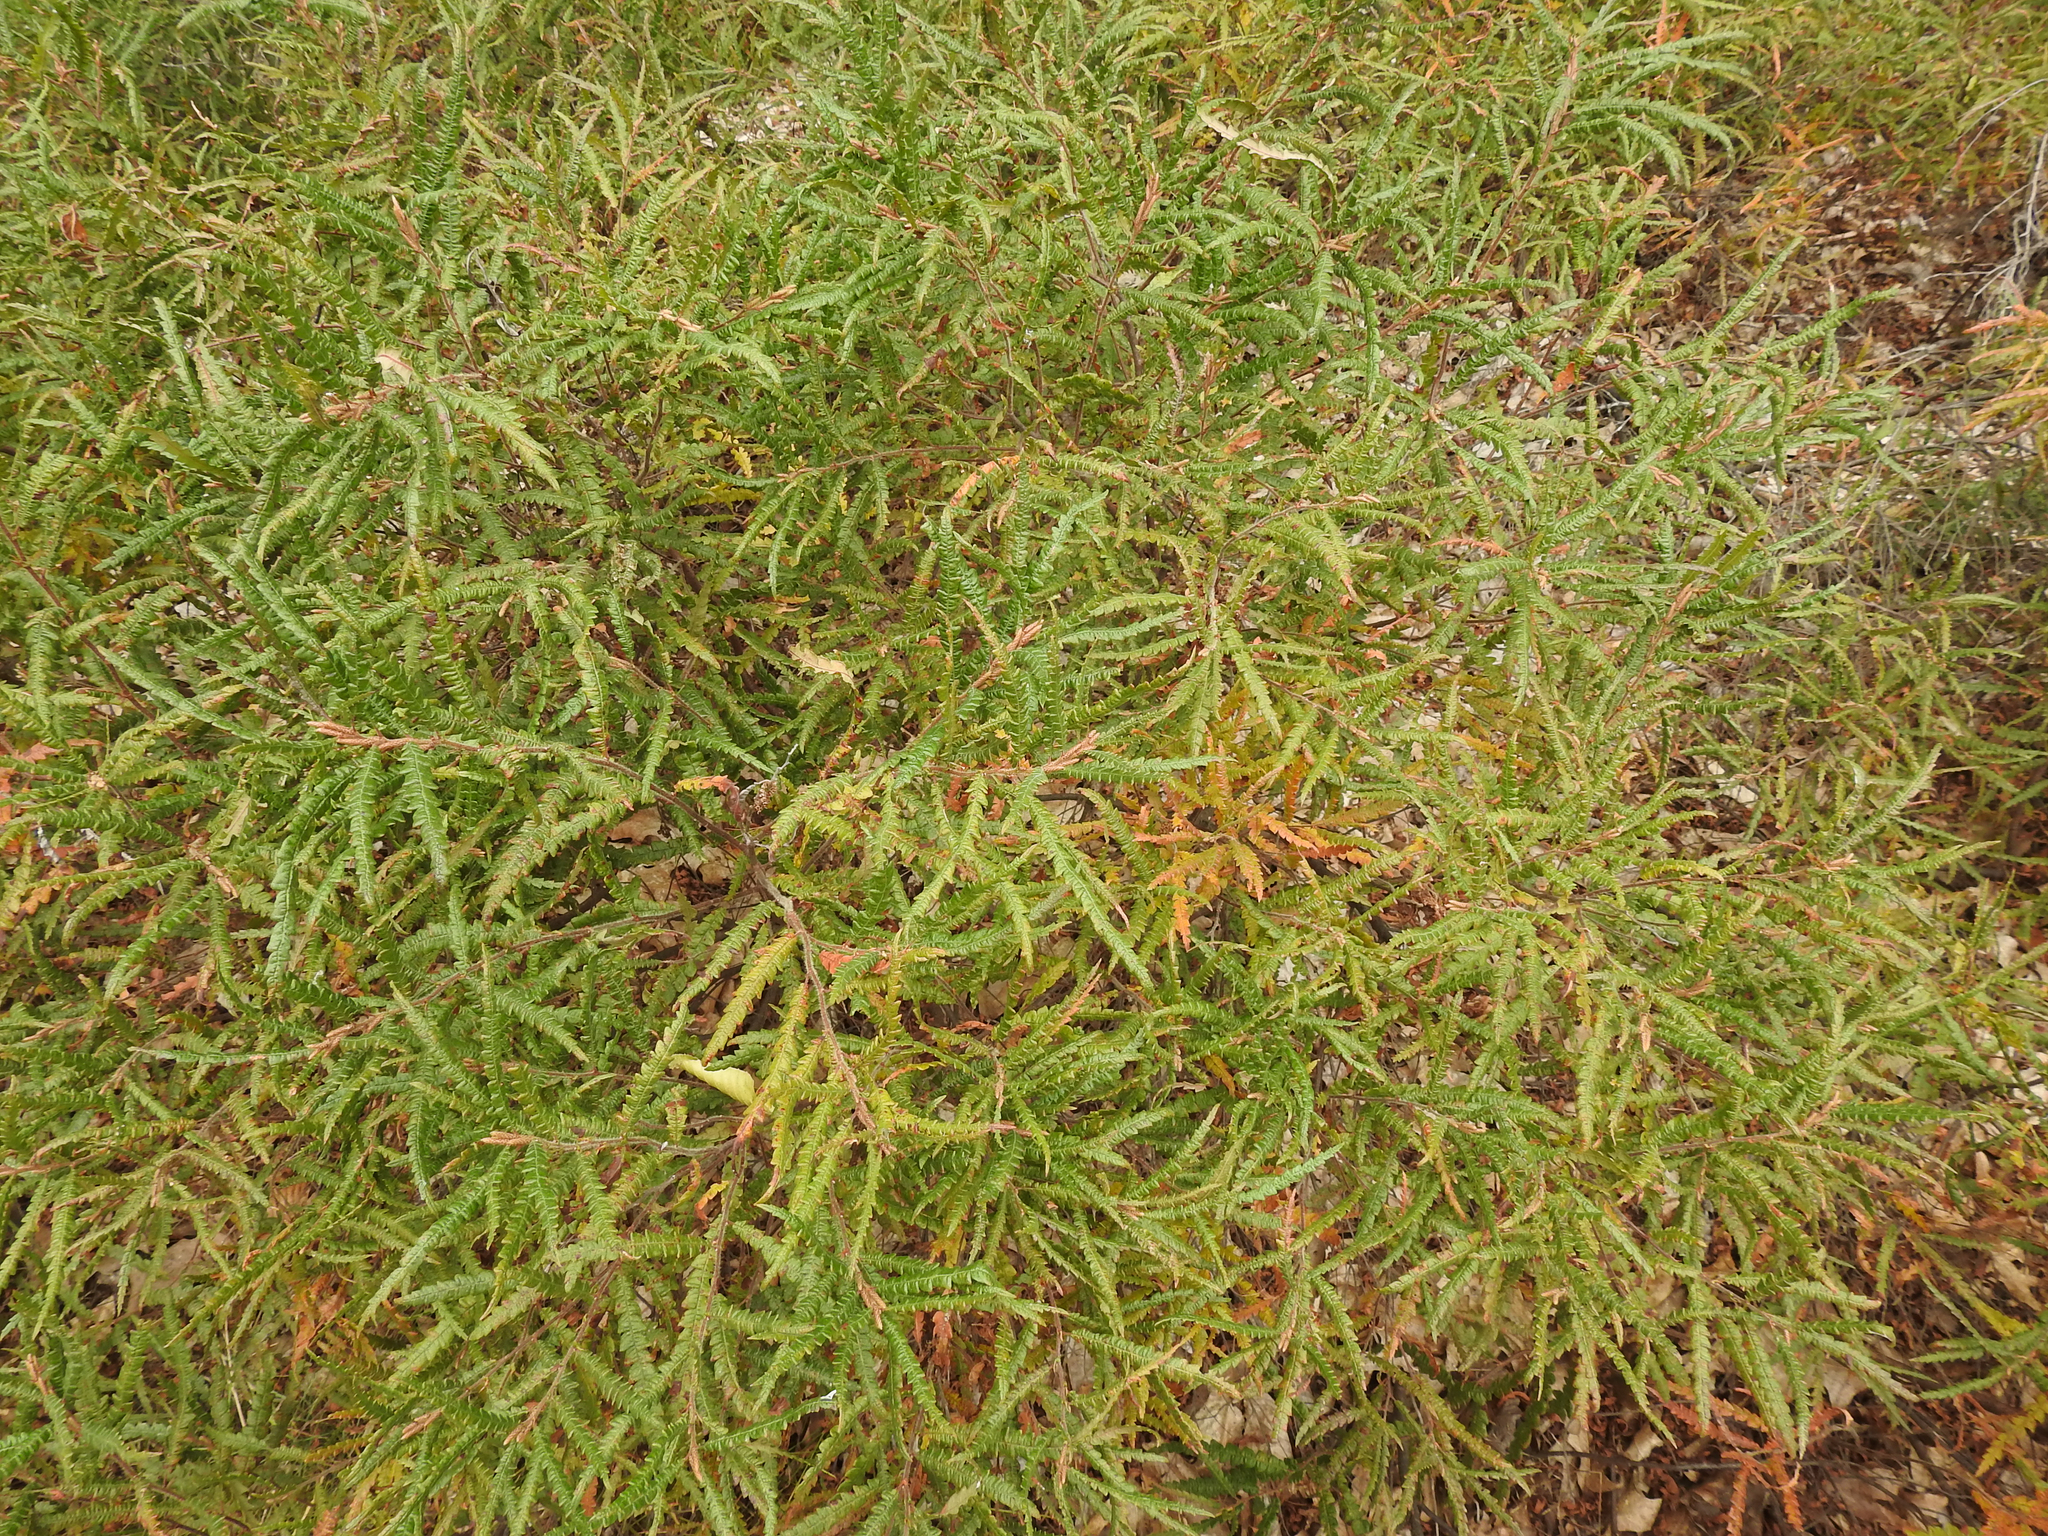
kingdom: Plantae
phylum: Tracheophyta
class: Magnoliopsida
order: Fagales
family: Myricaceae
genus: Comptonia
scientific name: Comptonia peregrina
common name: Sweet-fern
